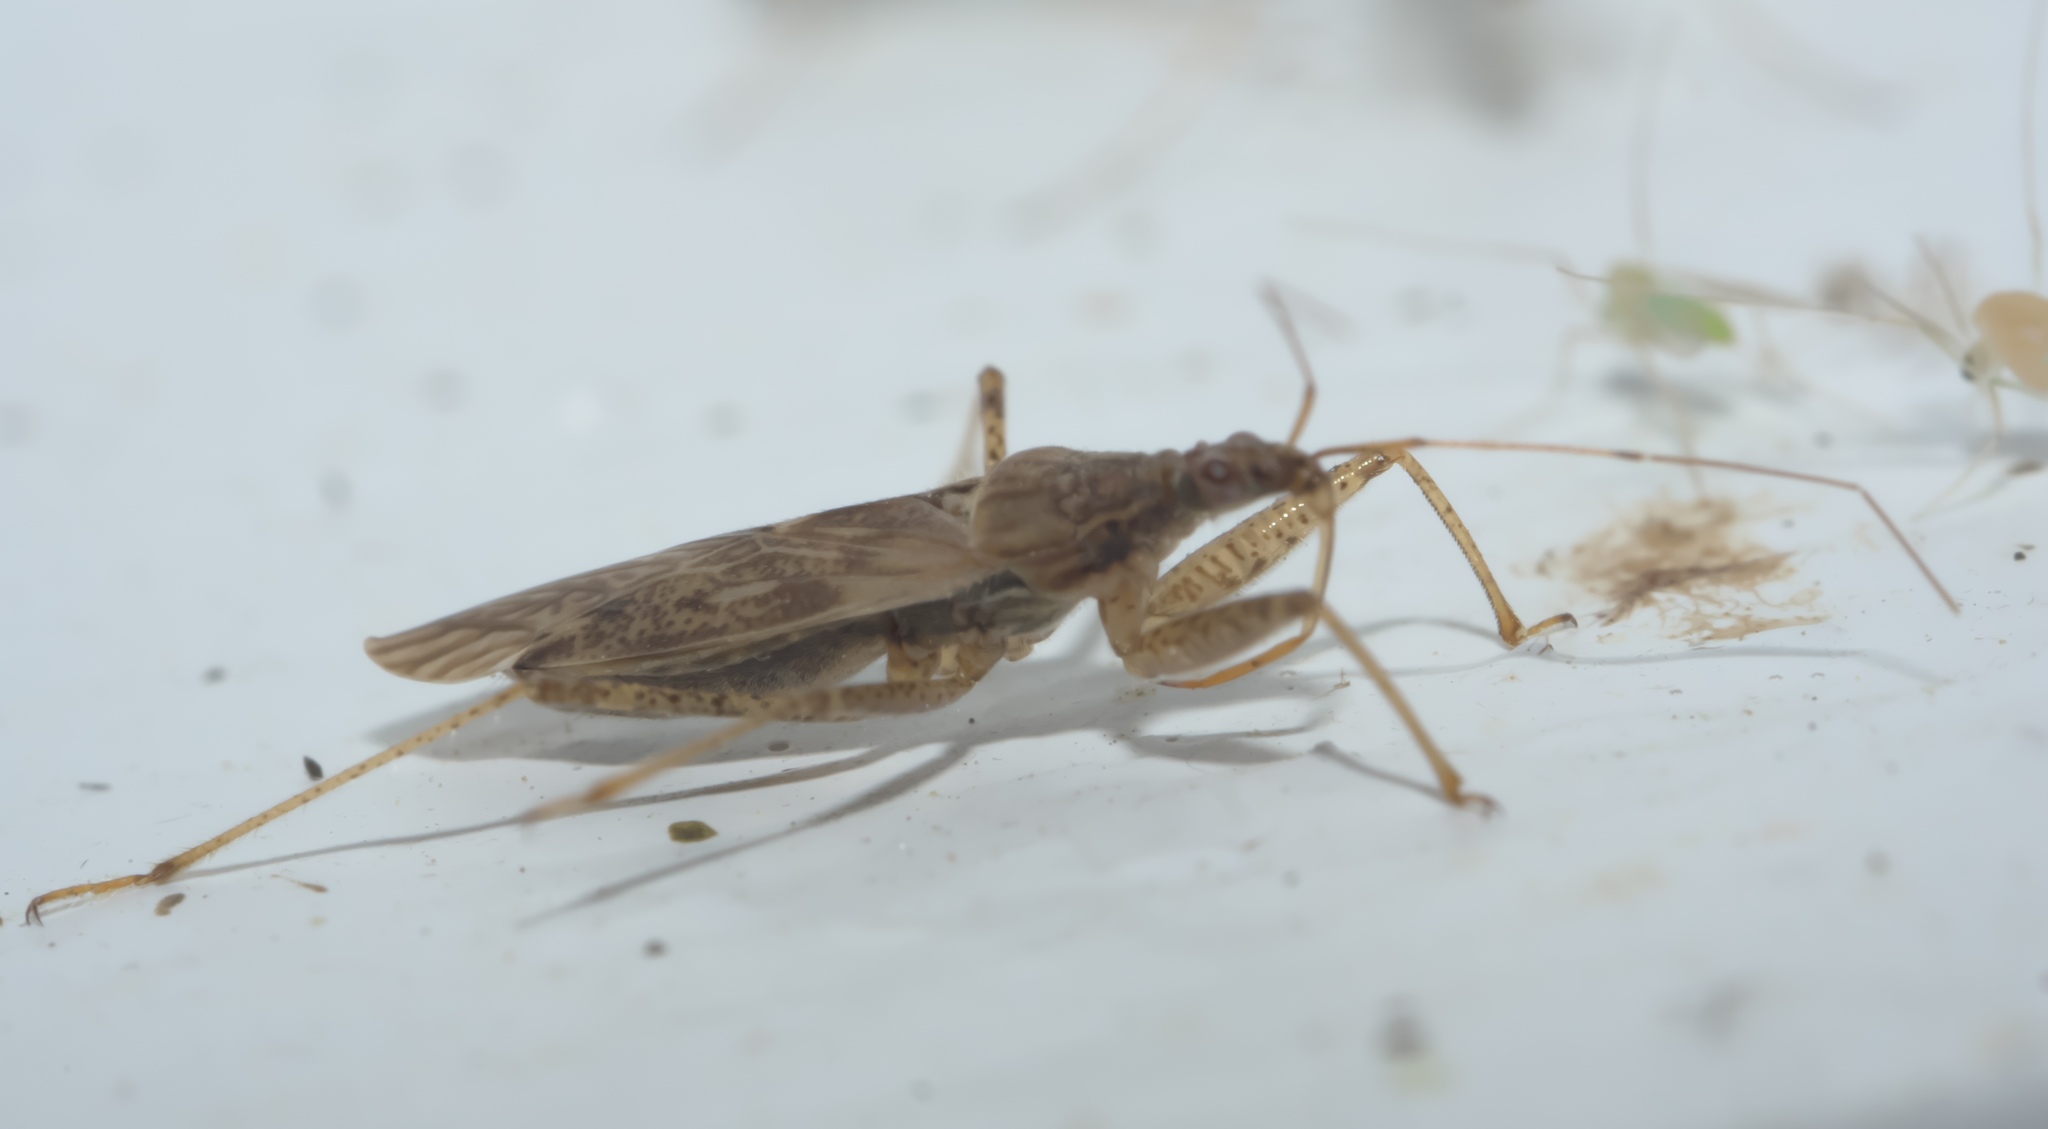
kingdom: Animalia
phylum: Arthropoda
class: Insecta
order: Hemiptera
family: Nabidae
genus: Nabis
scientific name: Nabis roseipennis
